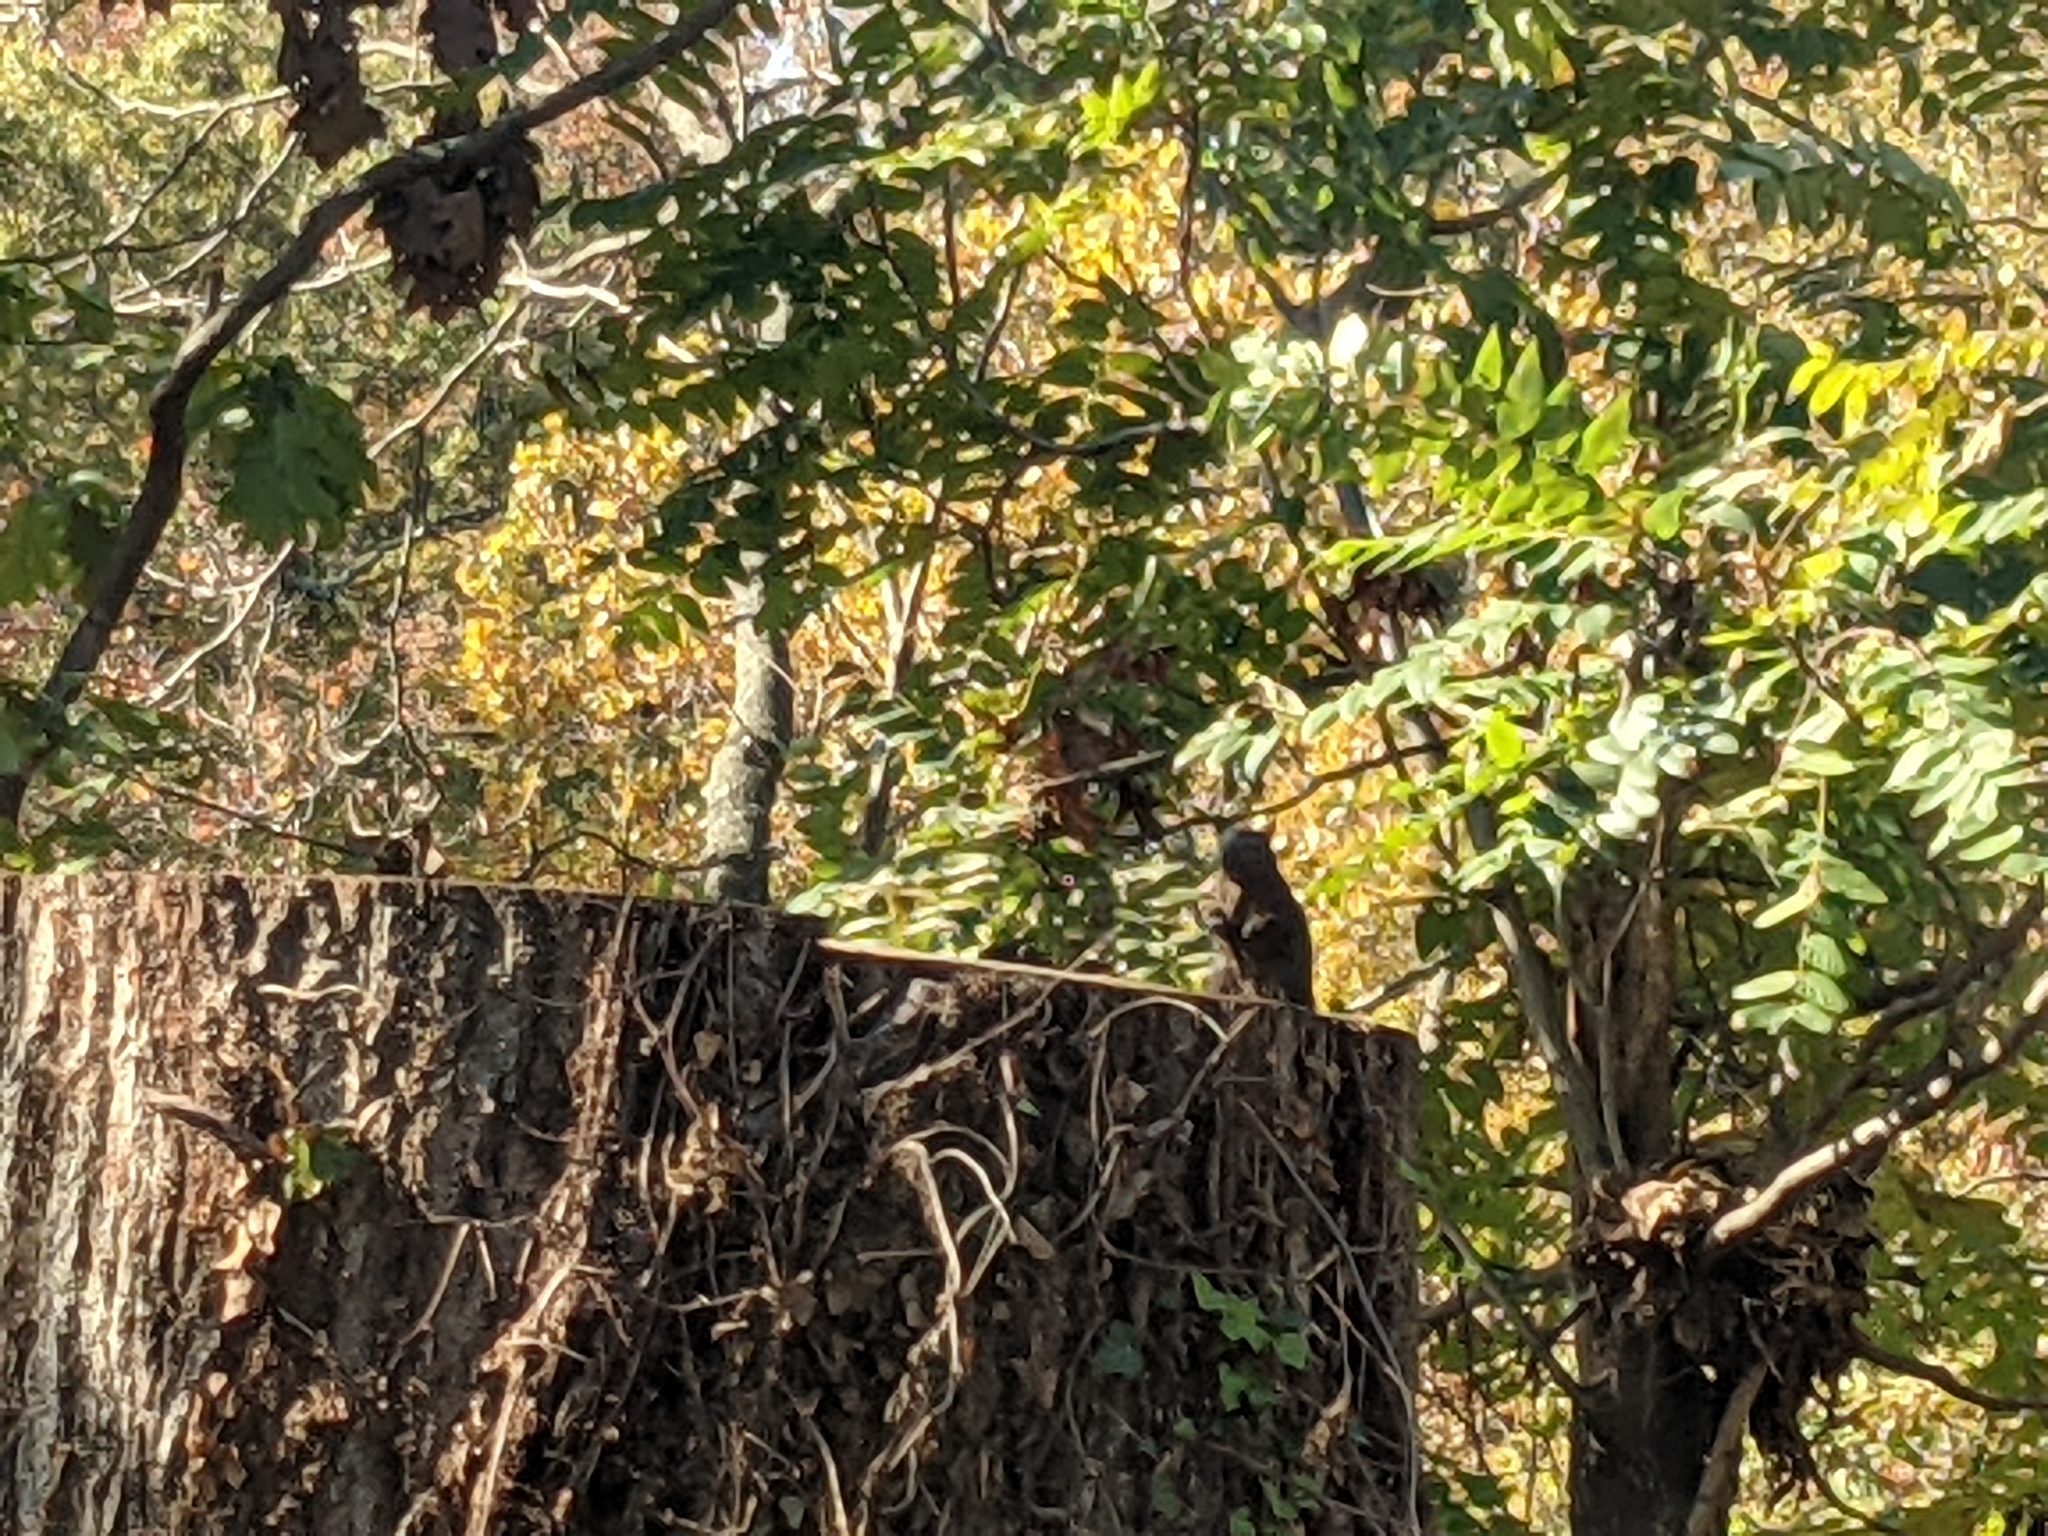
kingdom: Animalia
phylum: Chordata
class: Mammalia
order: Rodentia
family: Sciuridae
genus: Sciurus
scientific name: Sciurus carolinensis
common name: Eastern gray squirrel
